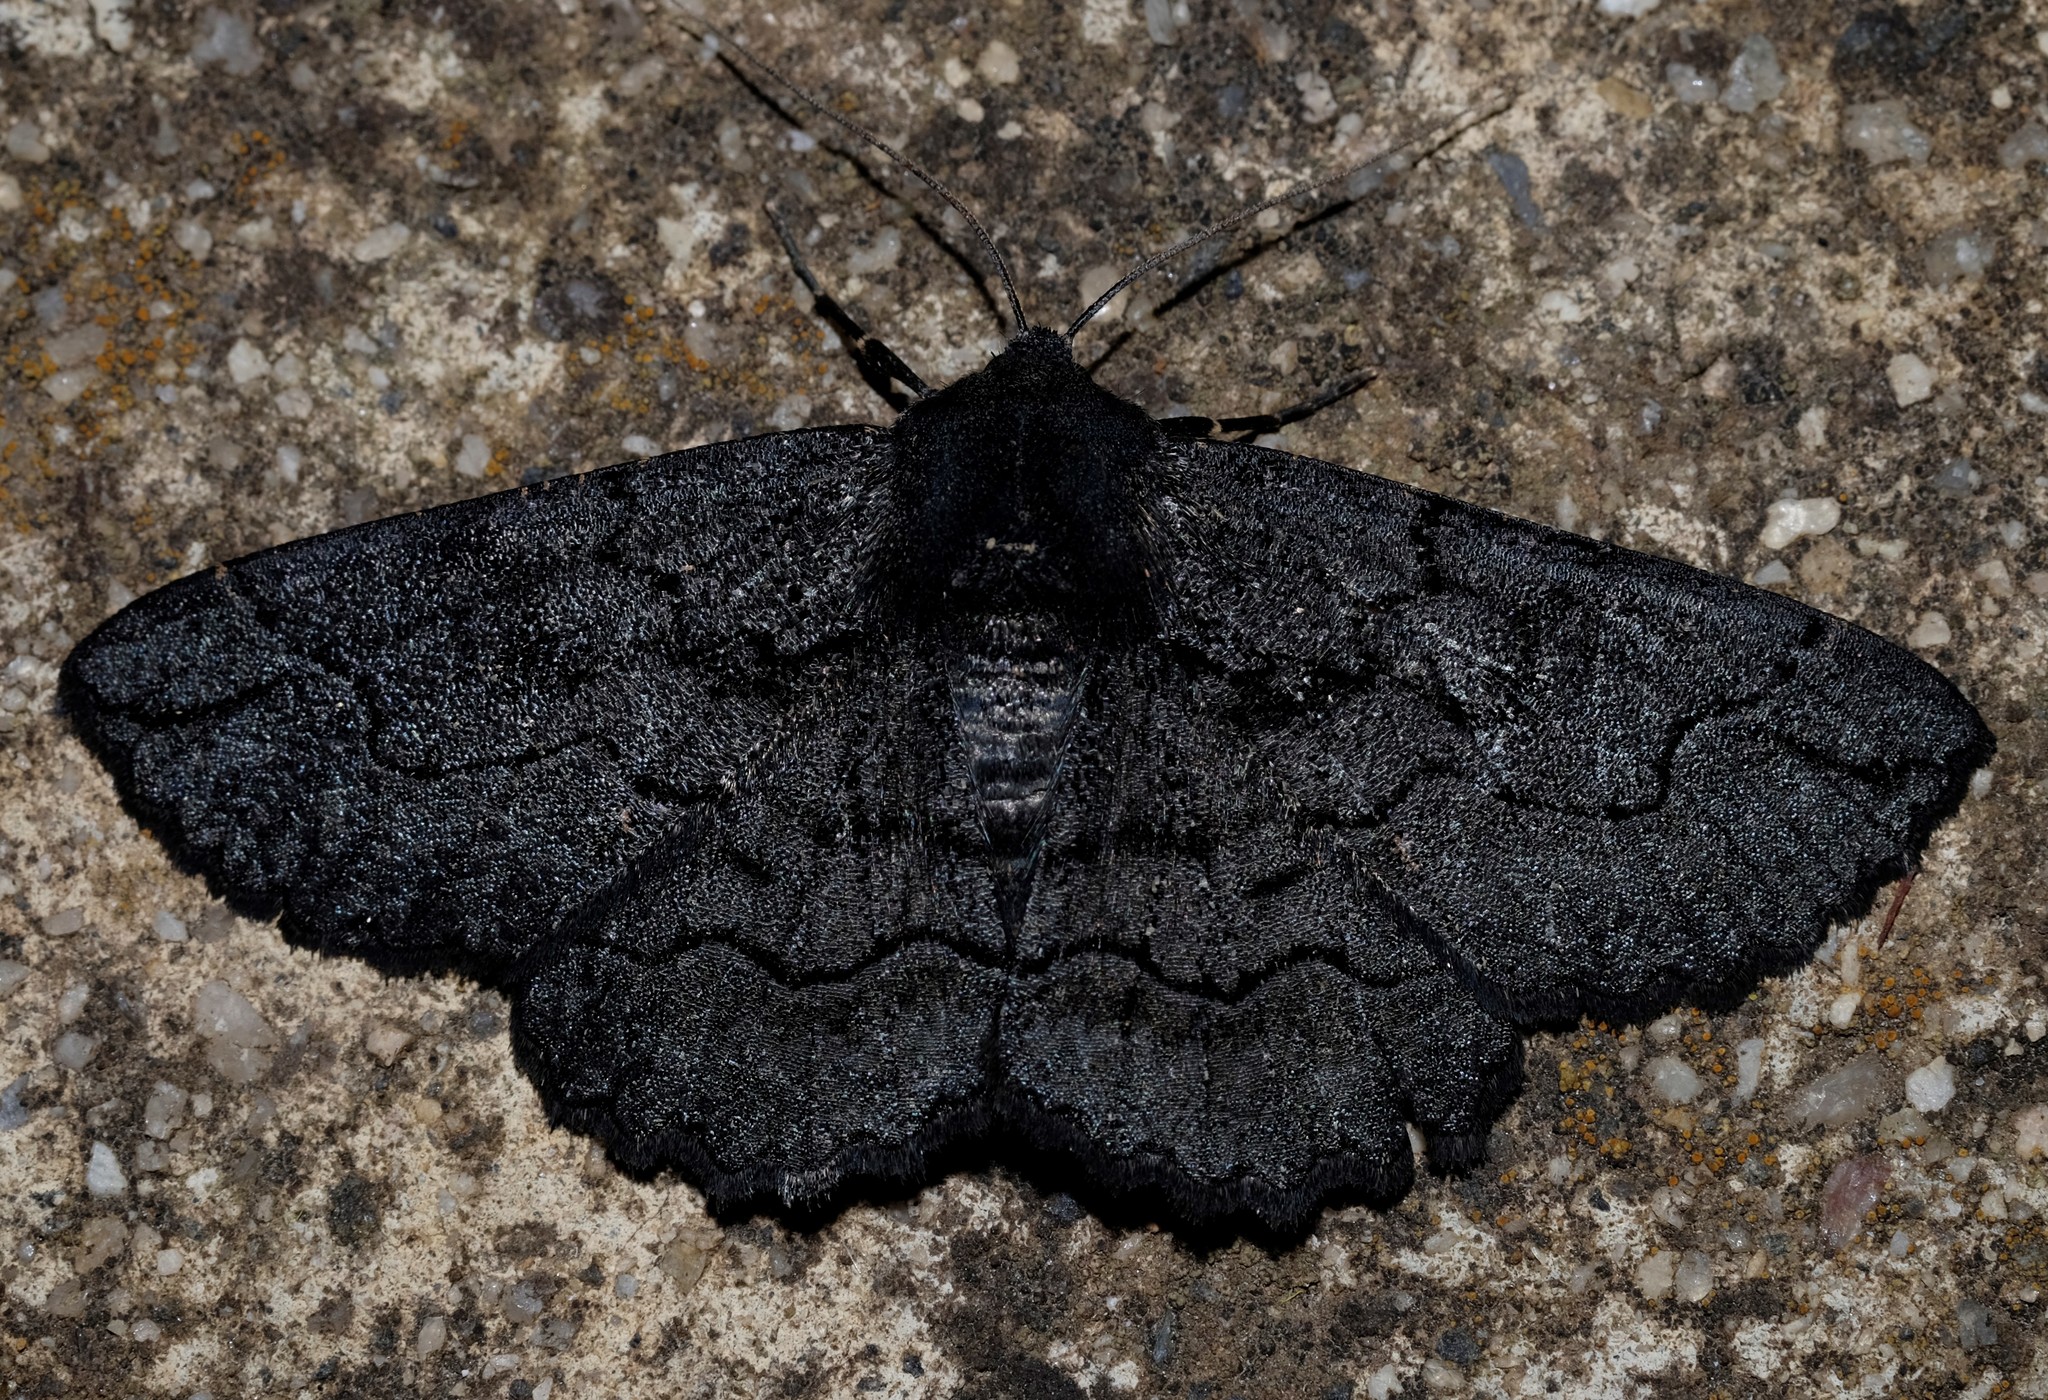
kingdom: Animalia
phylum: Arthropoda
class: Insecta
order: Lepidoptera
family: Geometridae
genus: Melanodes
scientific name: Melanodes anthracitaria
